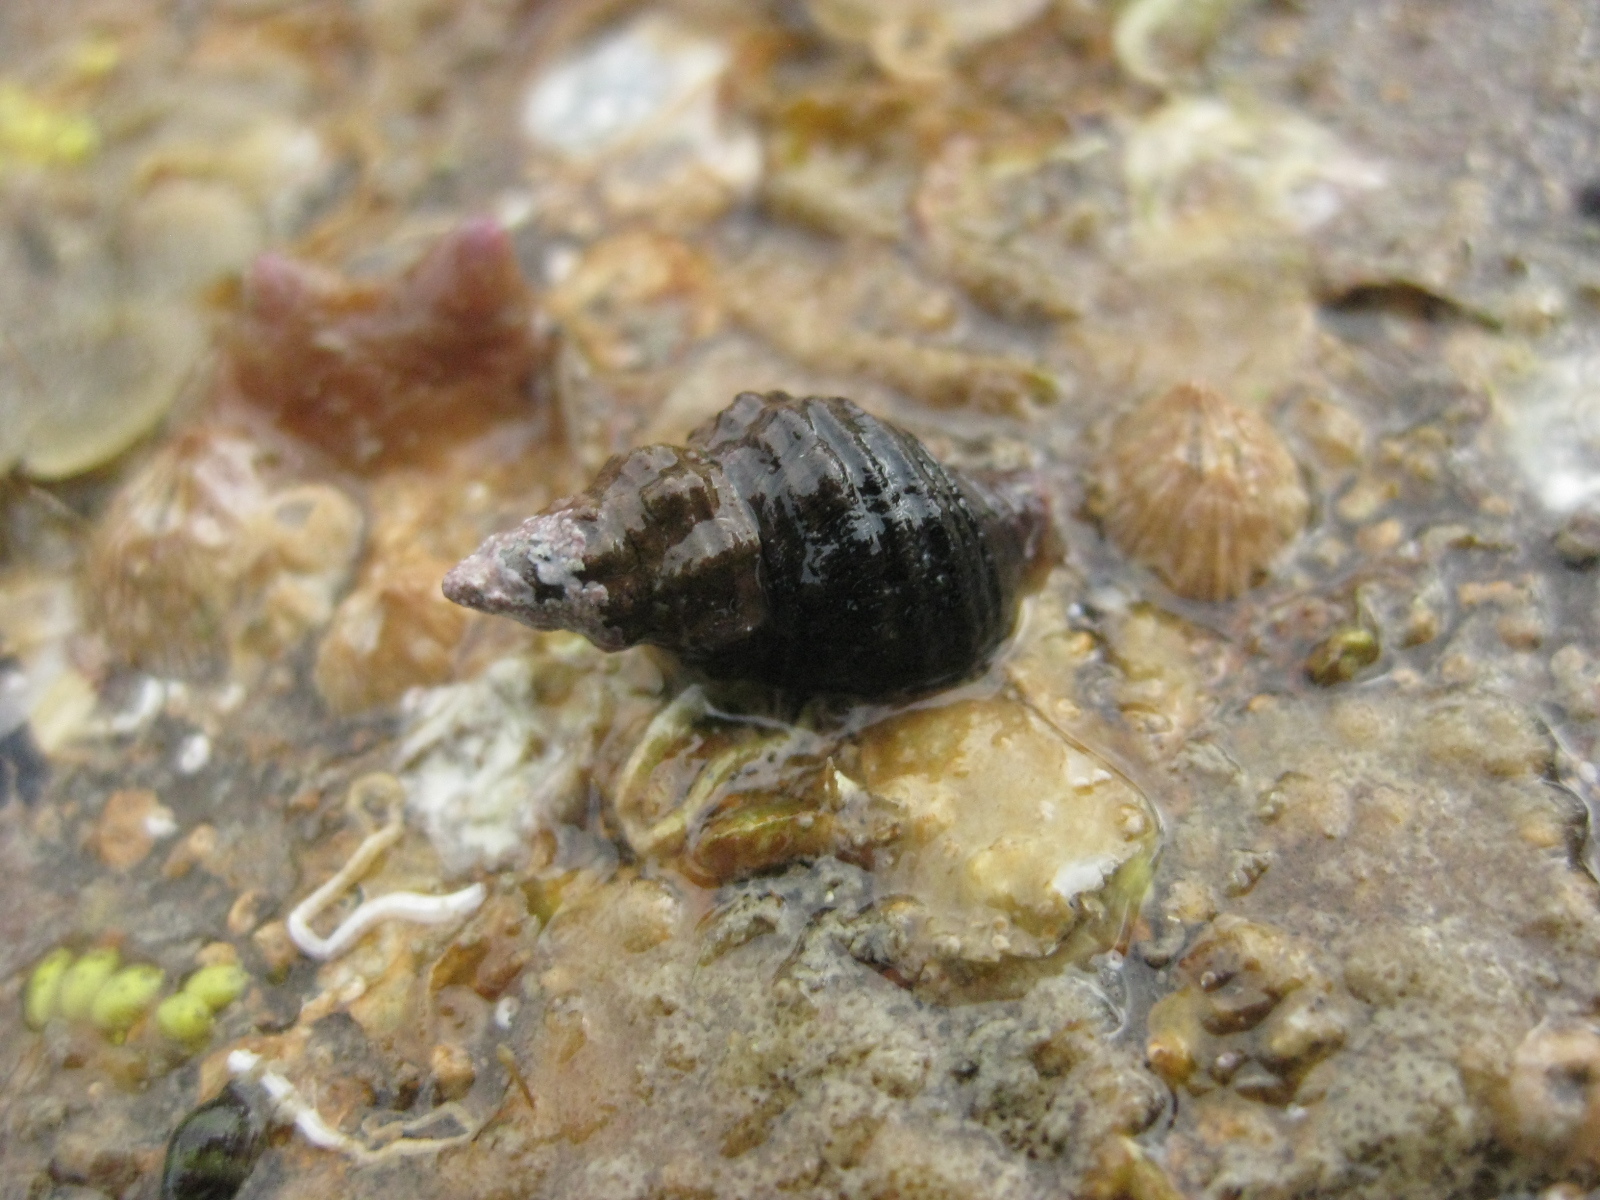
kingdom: Animalia
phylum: Mollusca
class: Gastropoda
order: Neogastropoda
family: Fasciolariidae
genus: Taron
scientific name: Taron dubius
